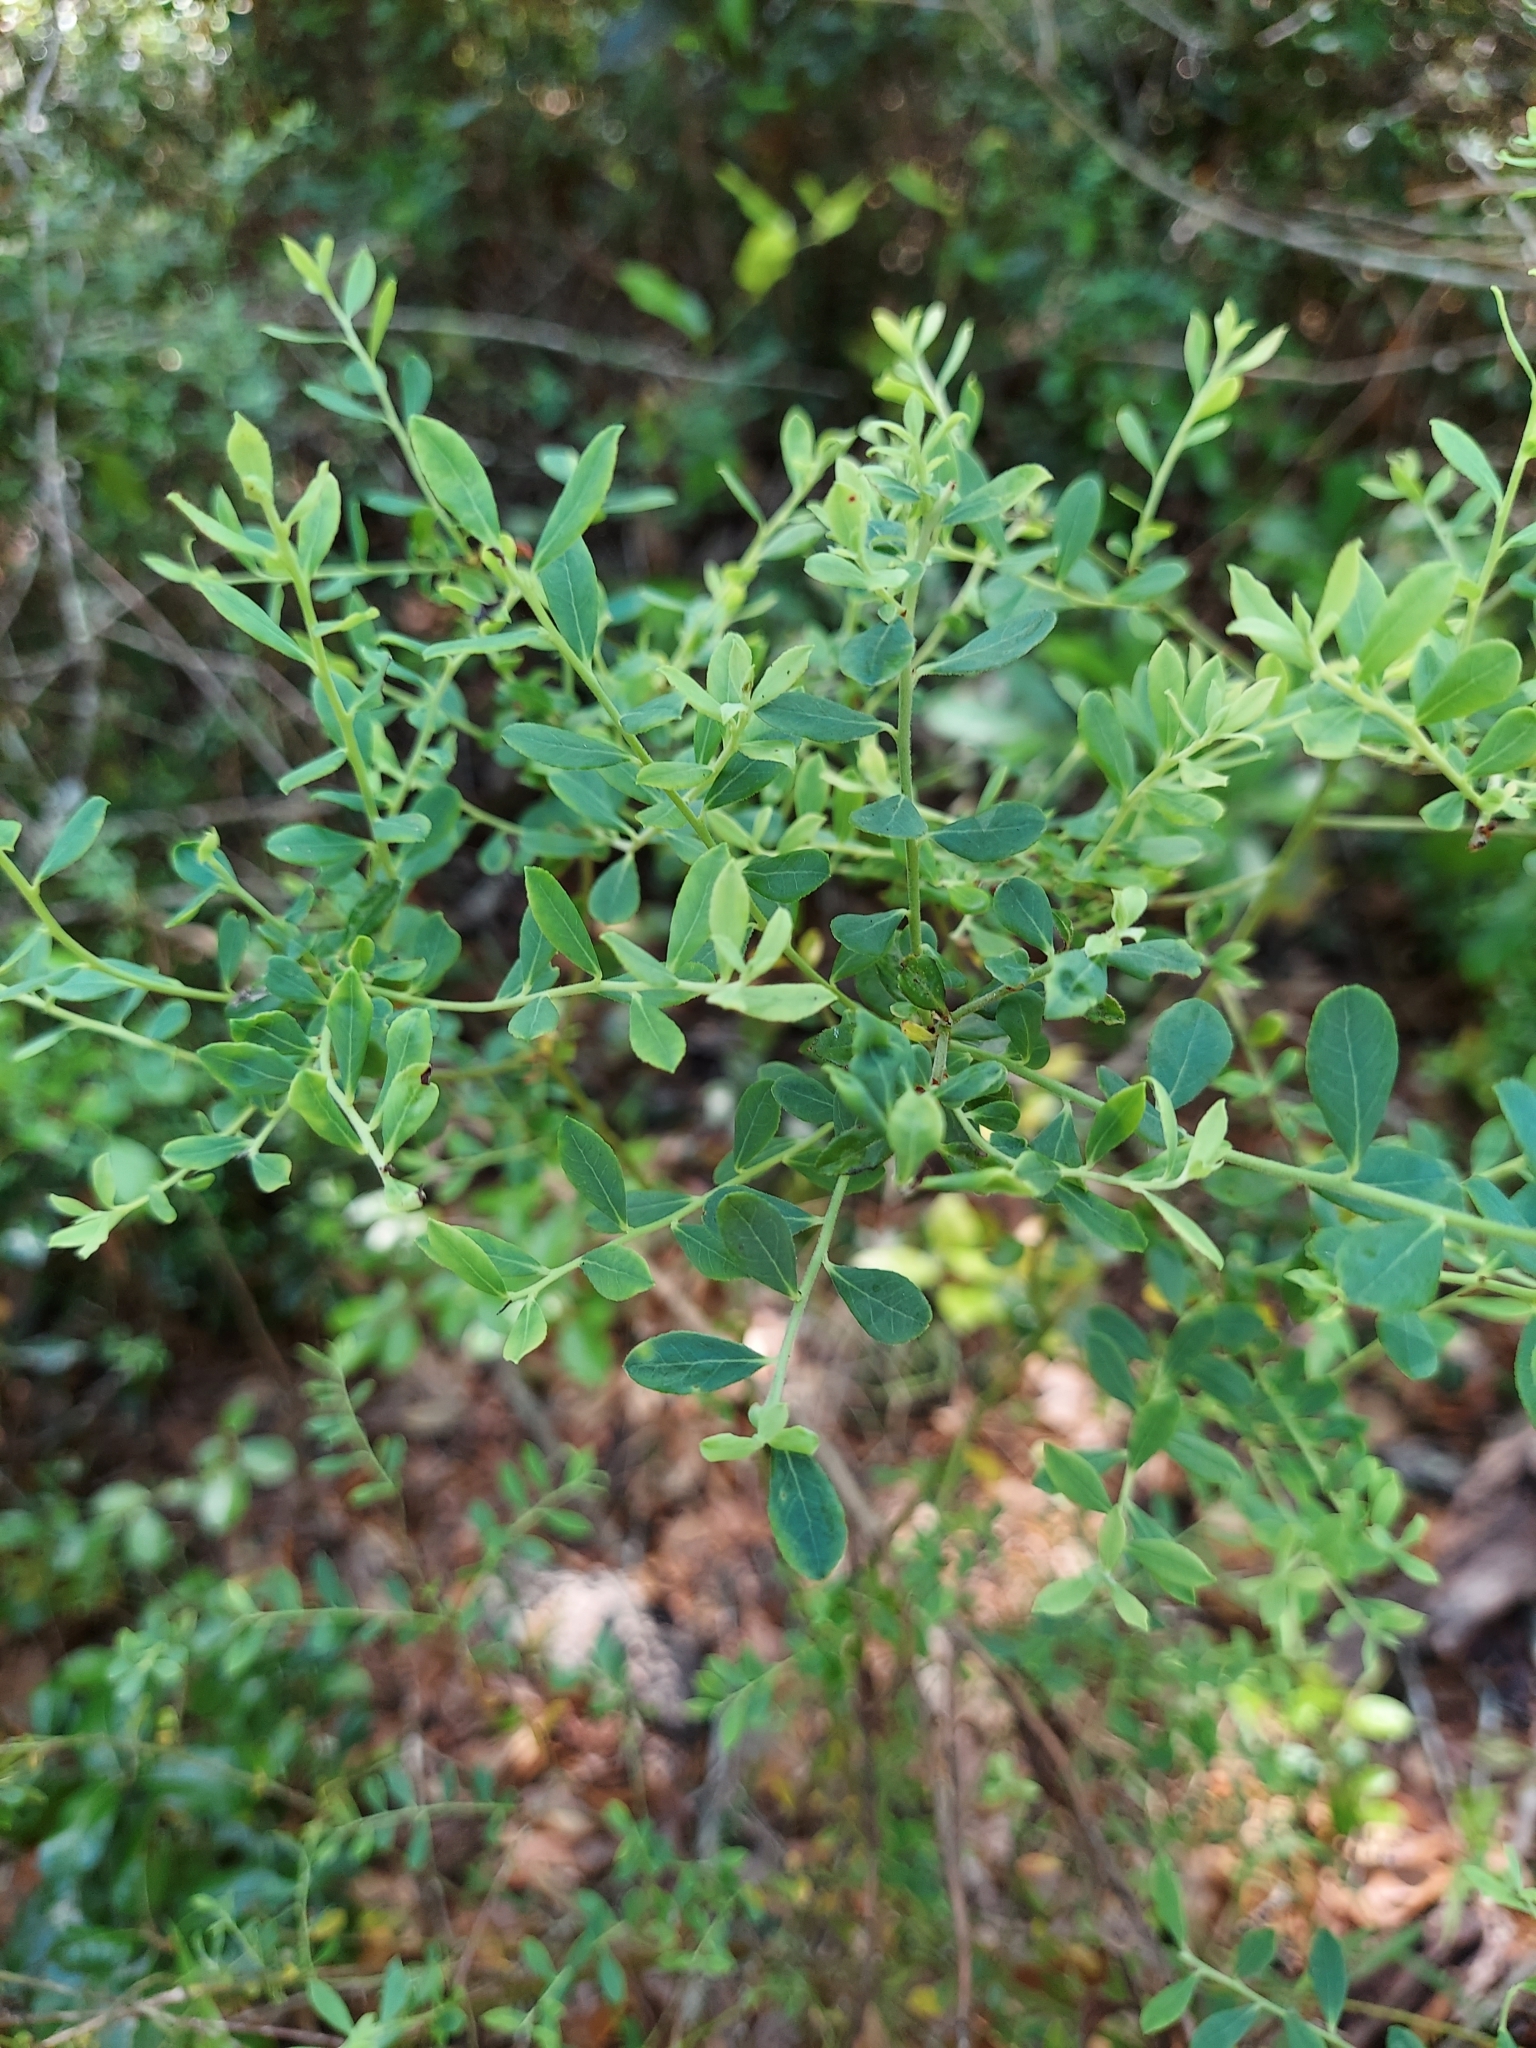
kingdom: Plantae
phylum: Tracheophyta
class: Magnoliopsida
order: Ericales
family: Ericaceae
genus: Vaccinium
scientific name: Vaccinium darrowii
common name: Darrow's blueberry
